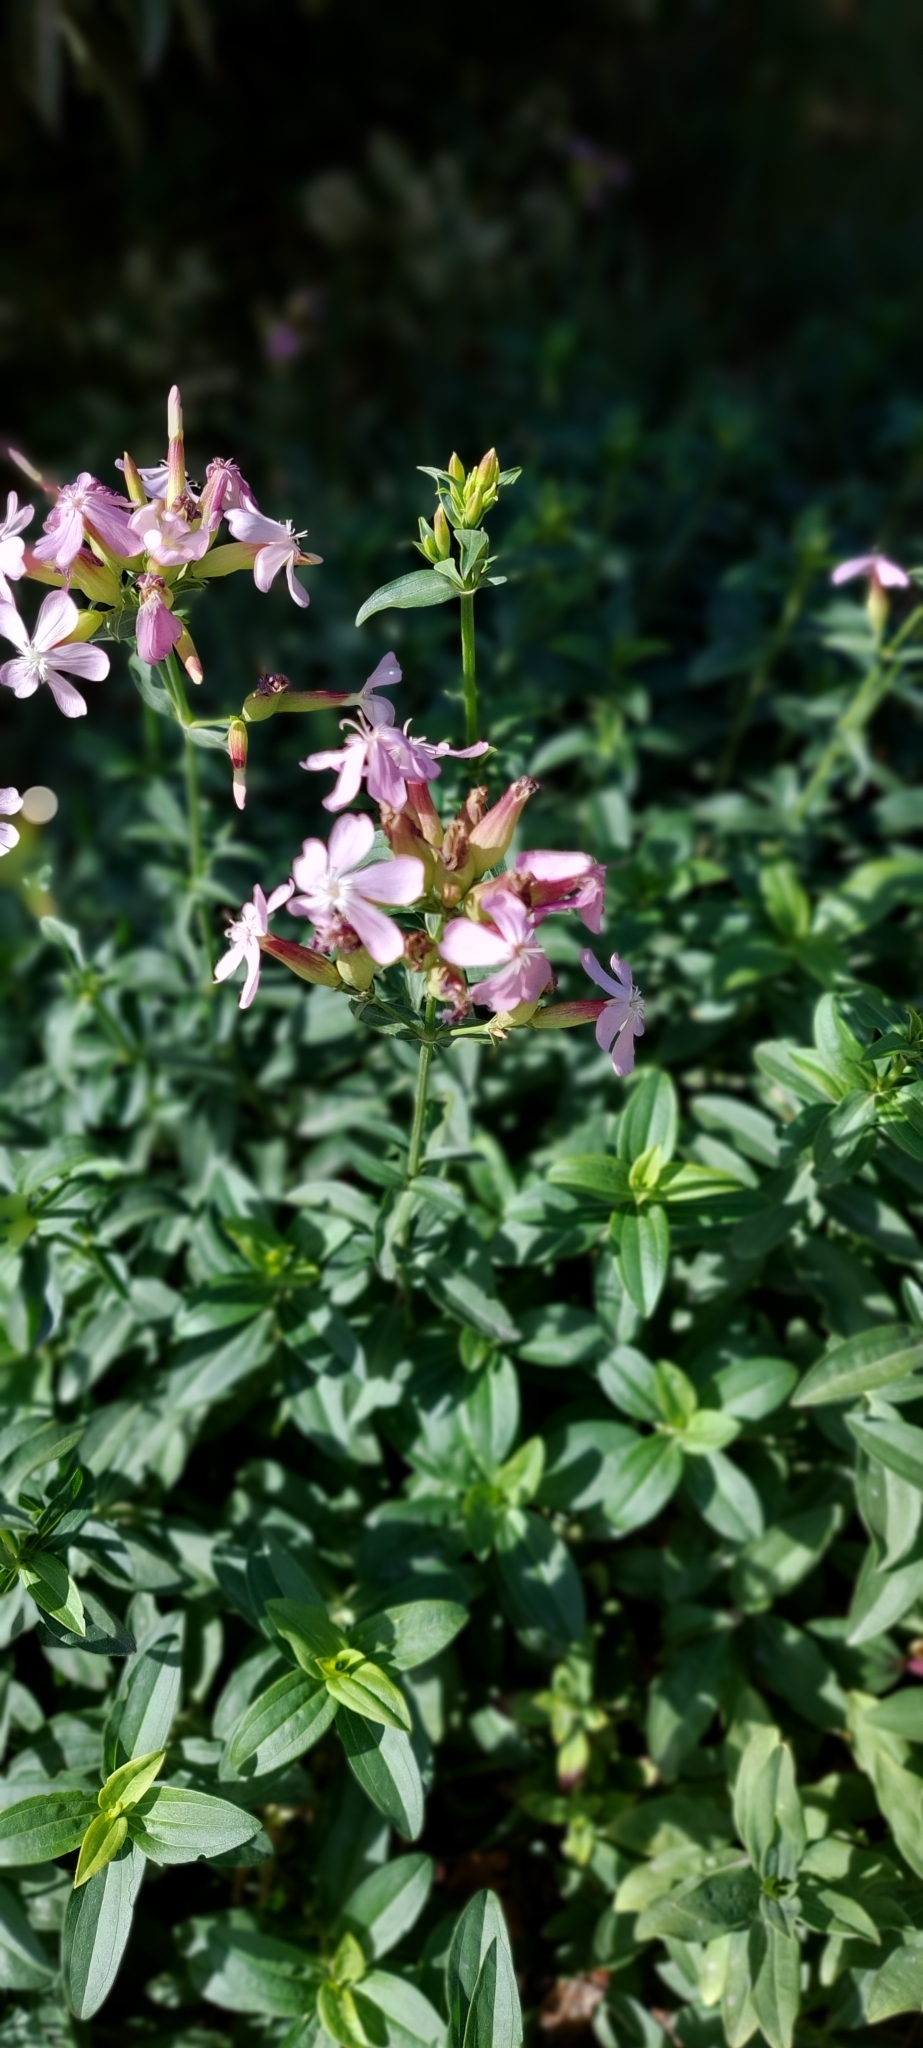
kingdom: Plantae
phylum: Tracheophyta
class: Magnoliopsida
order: Caryophyllales
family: Caryophyllaceae
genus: Saponaria
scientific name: Saponaria officinalis
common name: Soapwort
